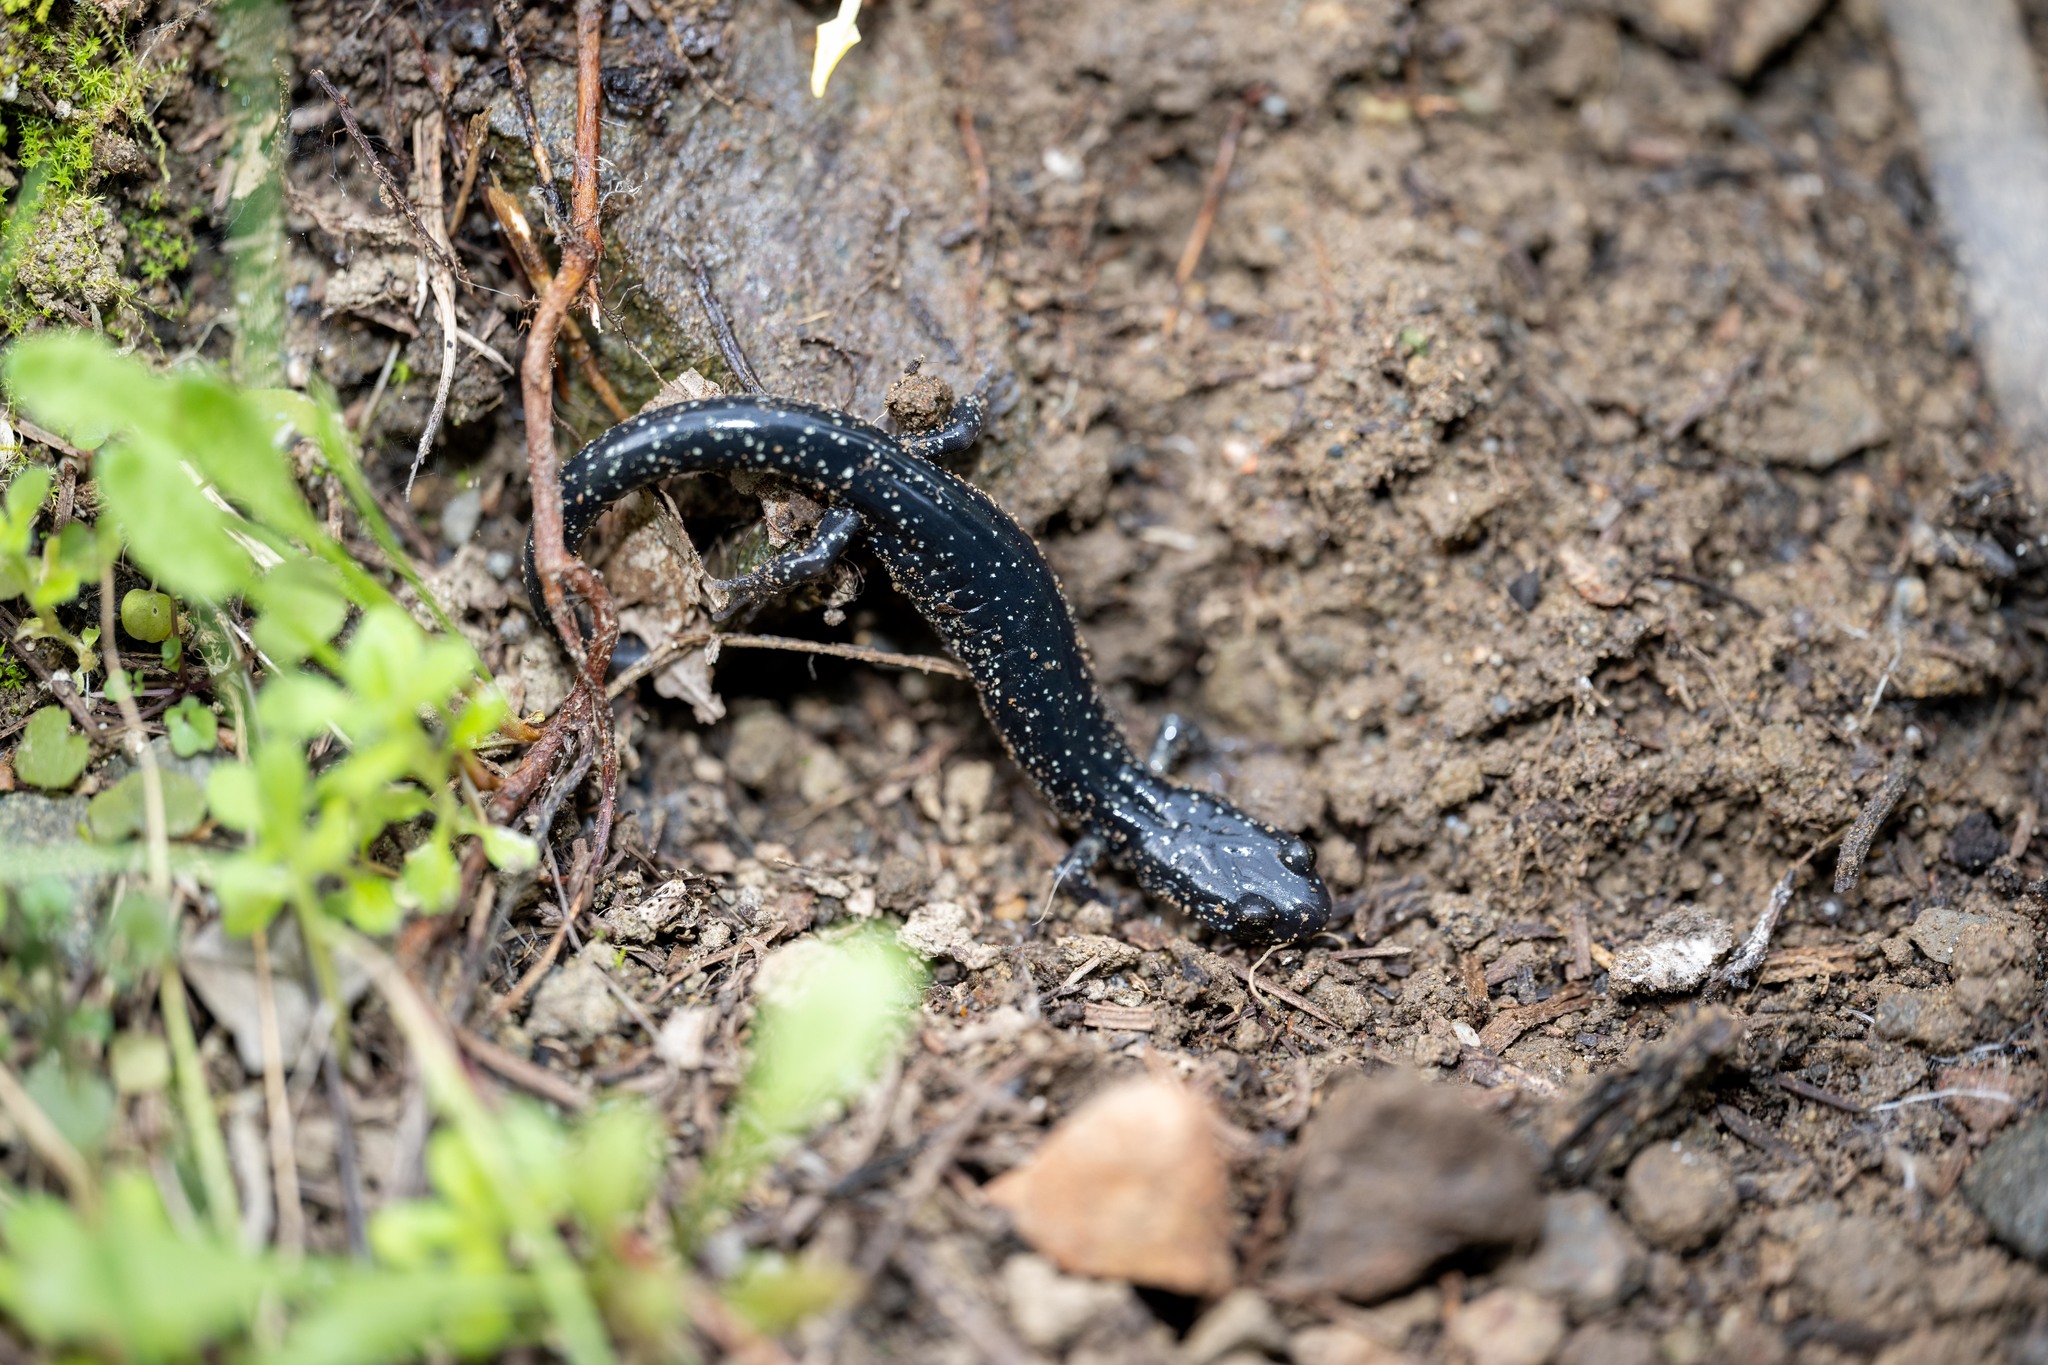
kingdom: Animalia
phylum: Chordata
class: Amphibia
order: Caudata
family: Plethodontidae
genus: Aneides
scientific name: Aneides flavipunctatus
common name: Black salamander
